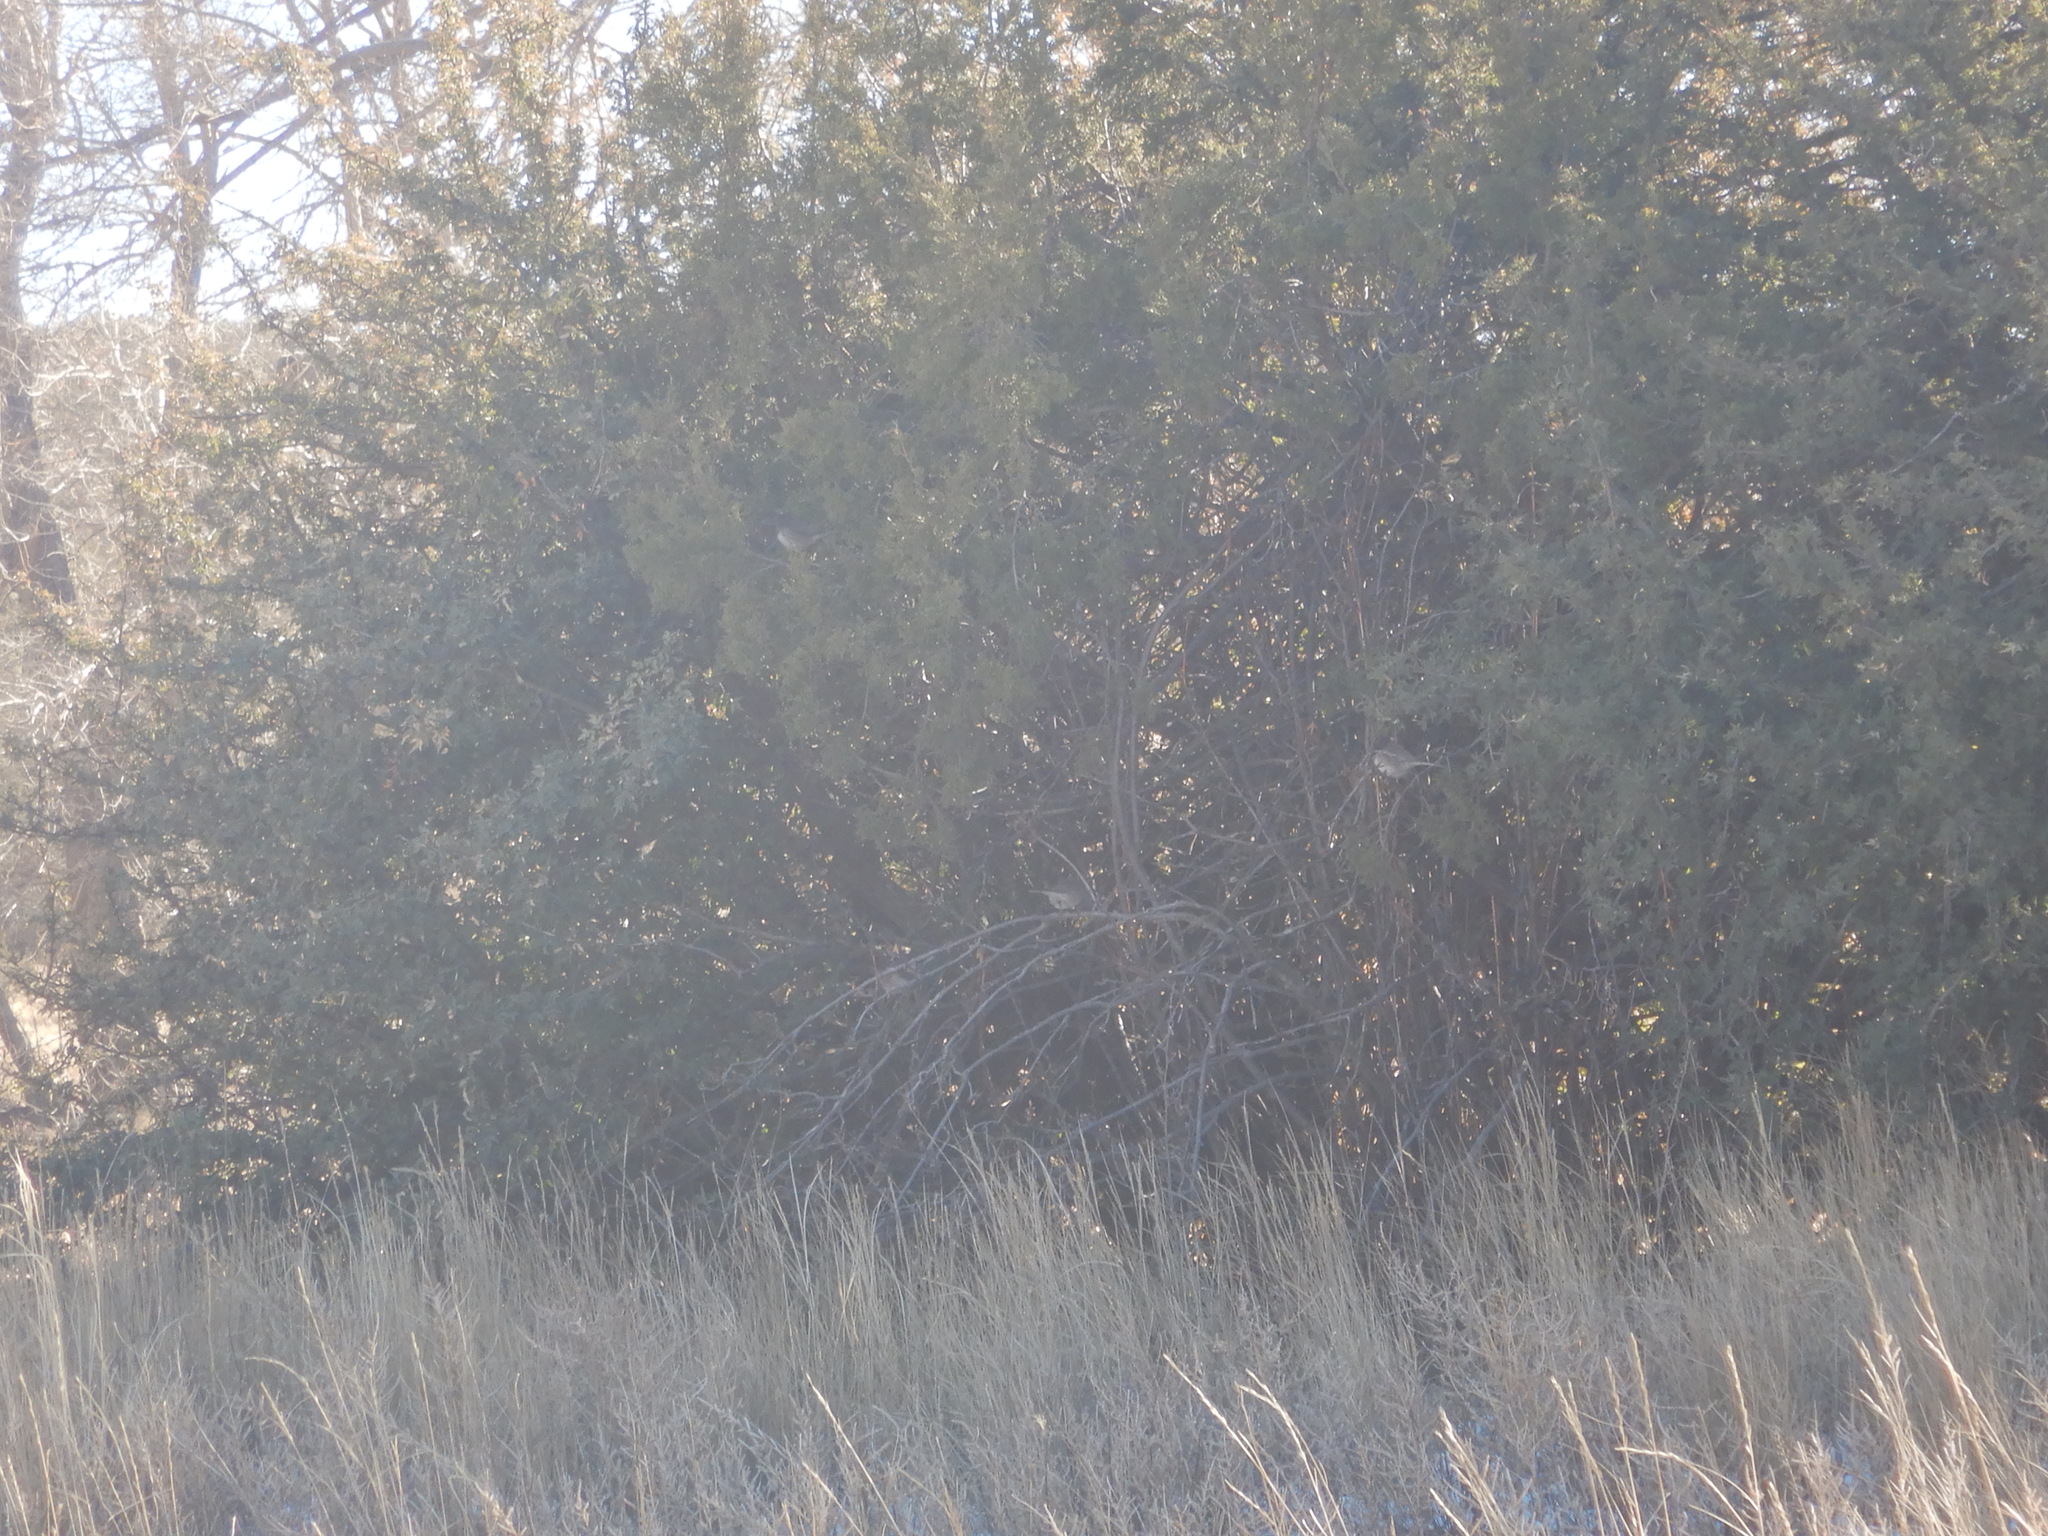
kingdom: Animalia
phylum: Chordata
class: Aves
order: Passeriformes
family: Passerellidae
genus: Junco
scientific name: Junco hyemalis
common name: Dark-eyed junco
